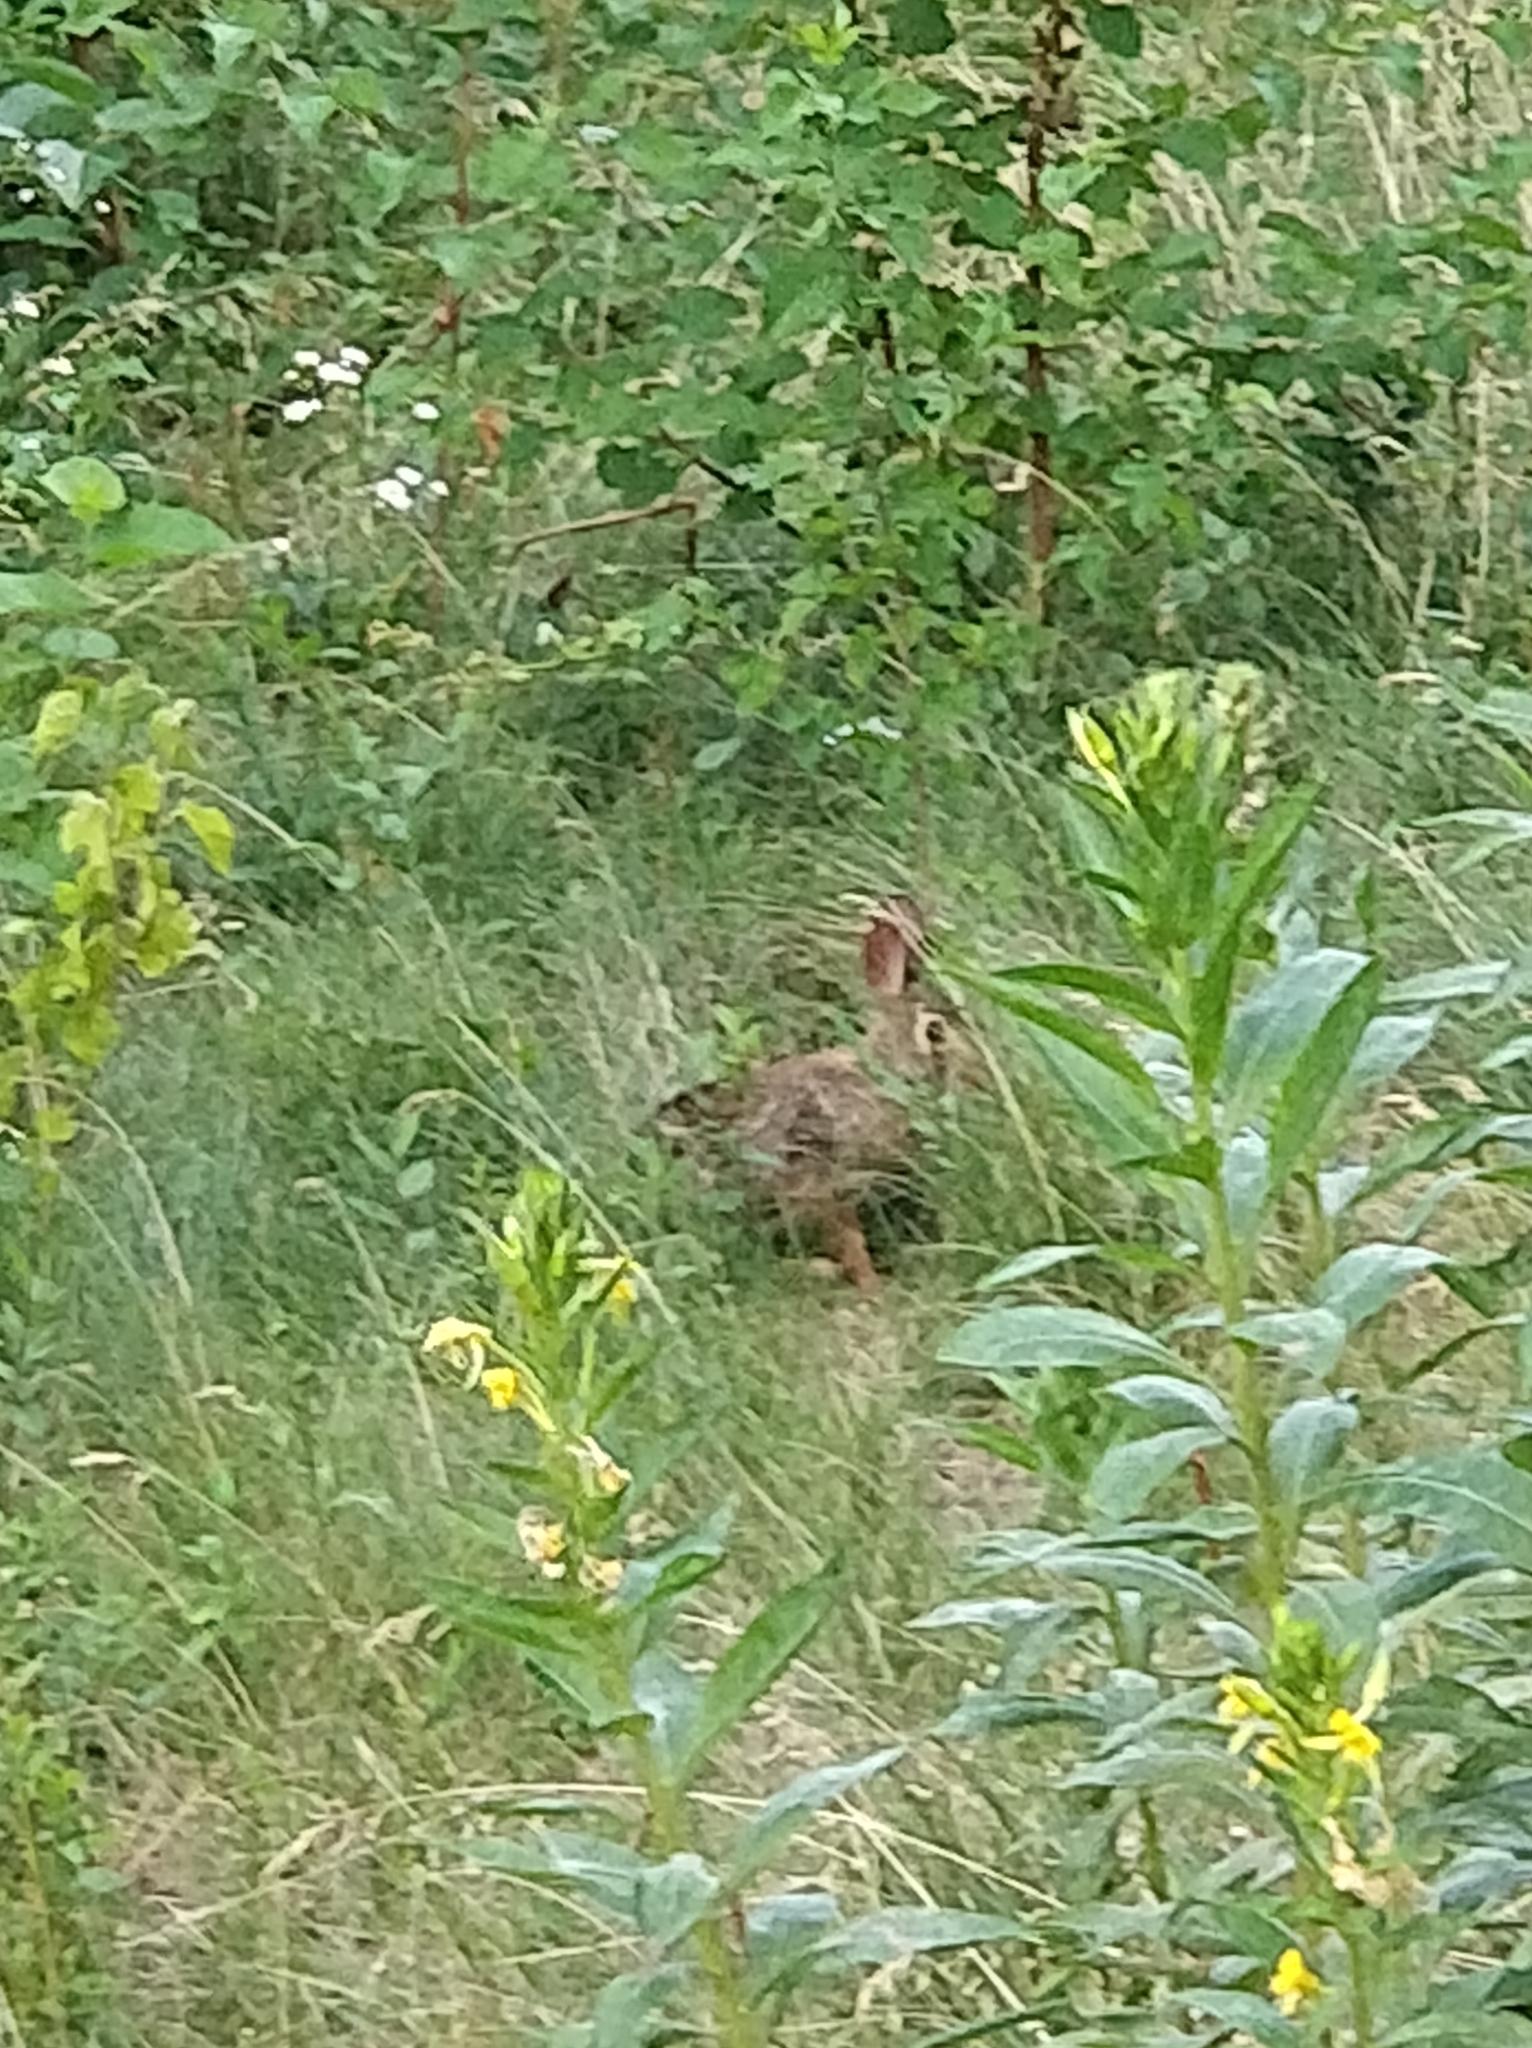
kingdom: Animalia
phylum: Chordata
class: Mammalia
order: Lagomorpha
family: Leporidae
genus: Sylvilagus
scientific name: Sylvilagus floridanus
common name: Eastern cottontail
